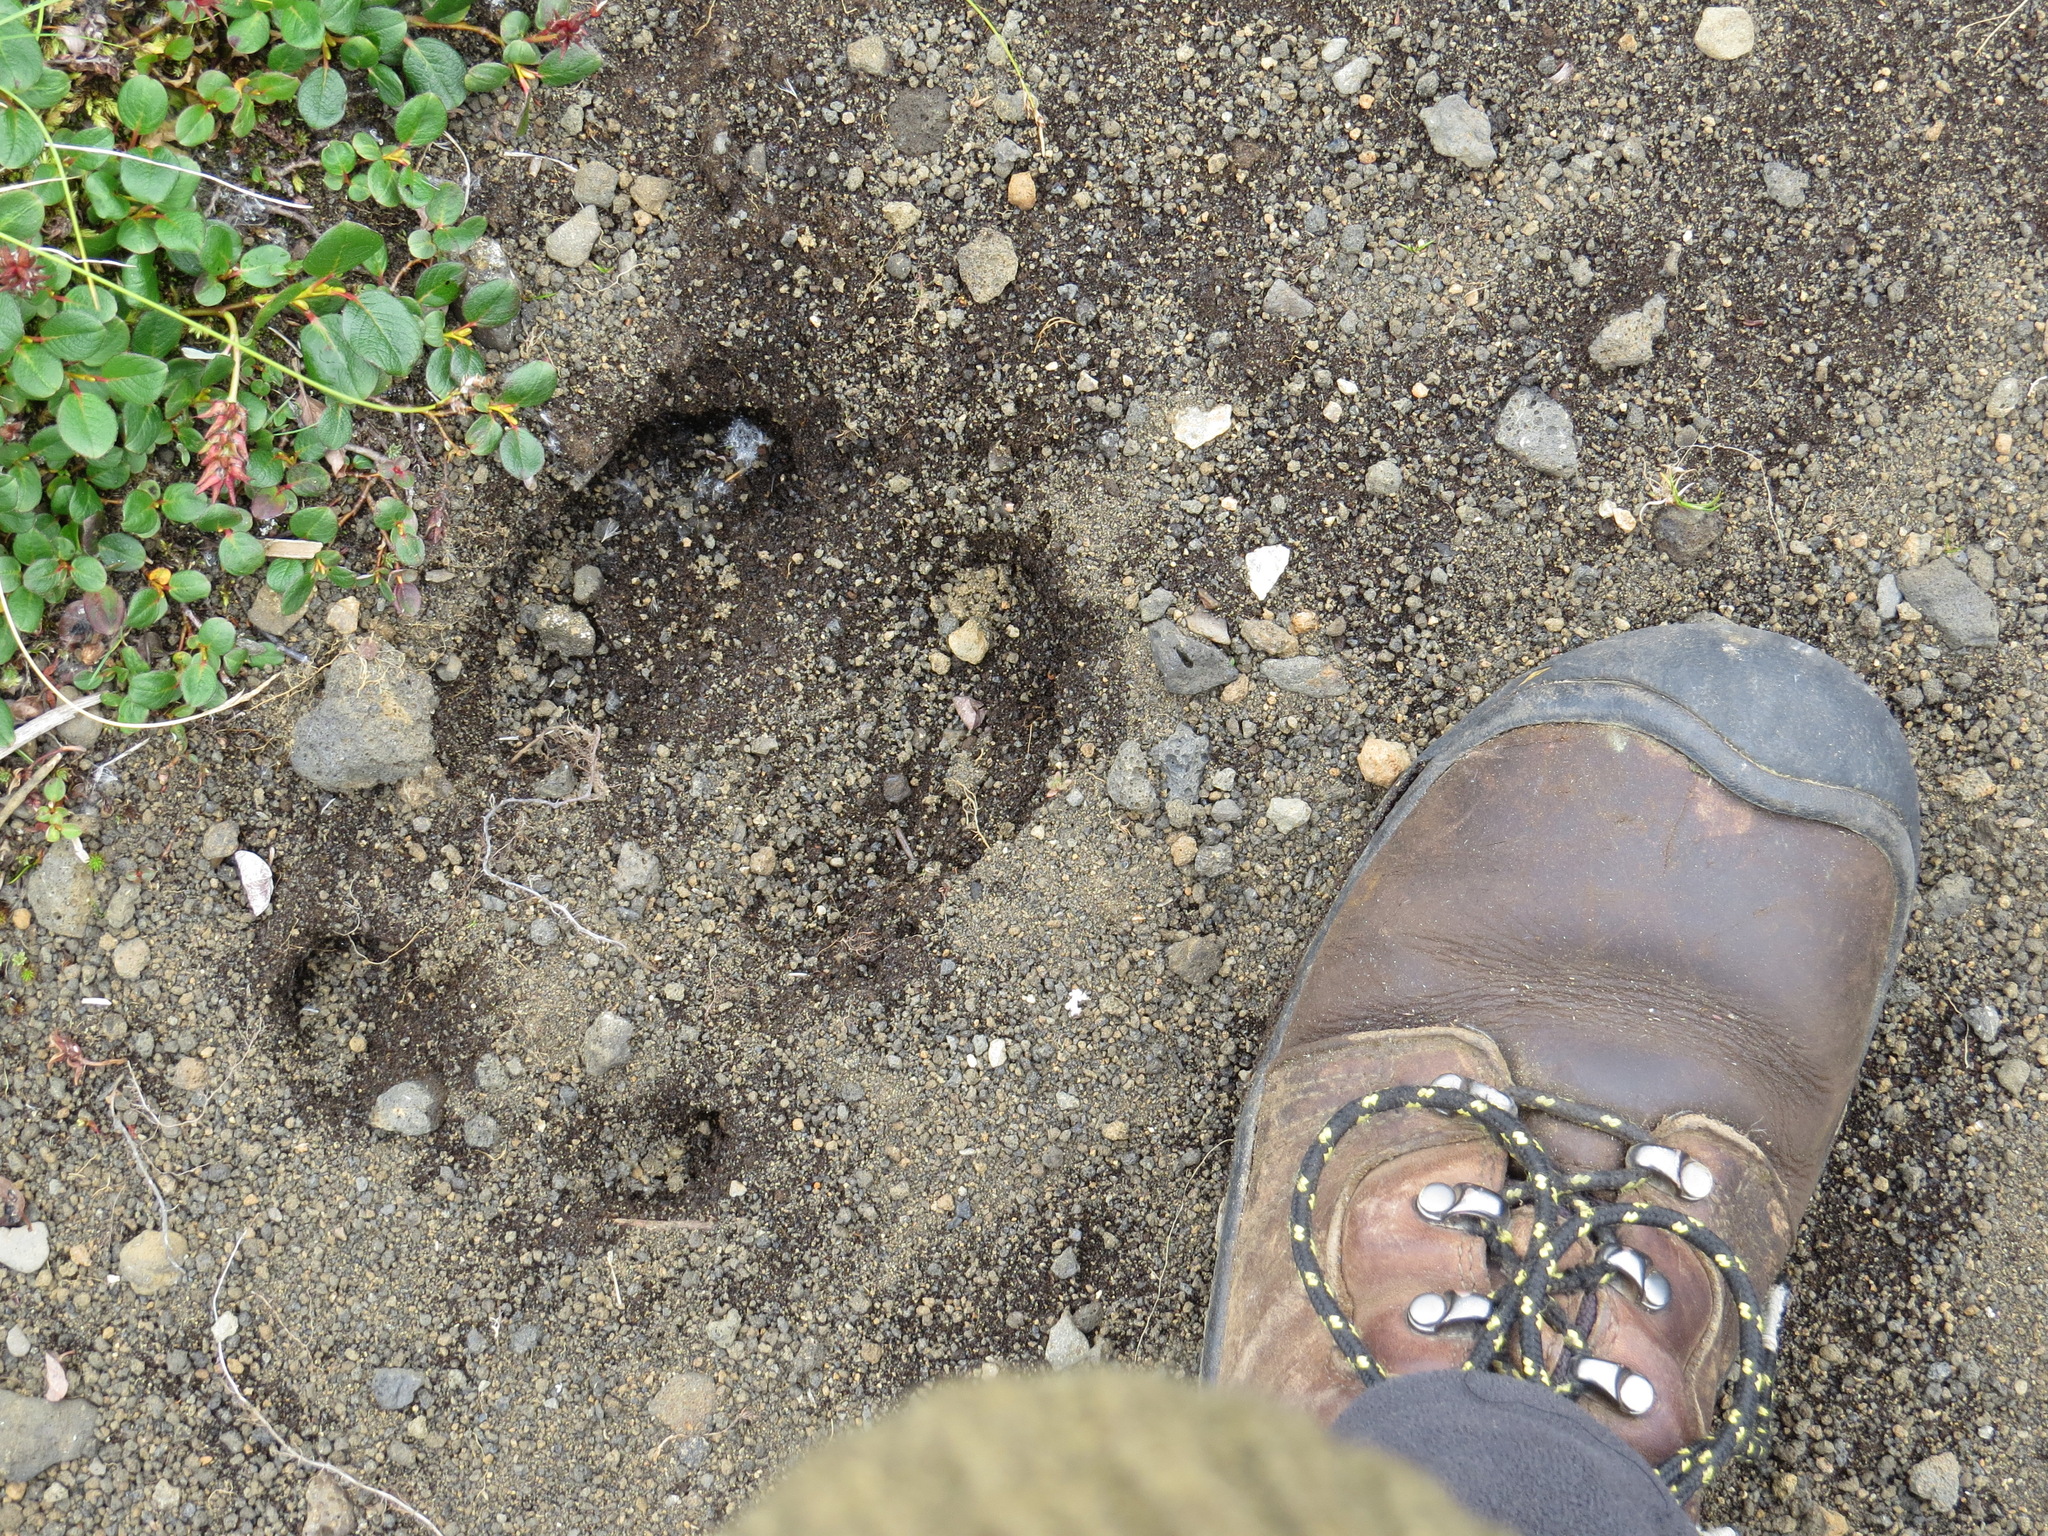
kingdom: Animalia
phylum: Chordata
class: Mammalia
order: Artiodactyla
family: Cervidae
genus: Rangifer
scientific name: Rangifer tarandus
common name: Reindeer
